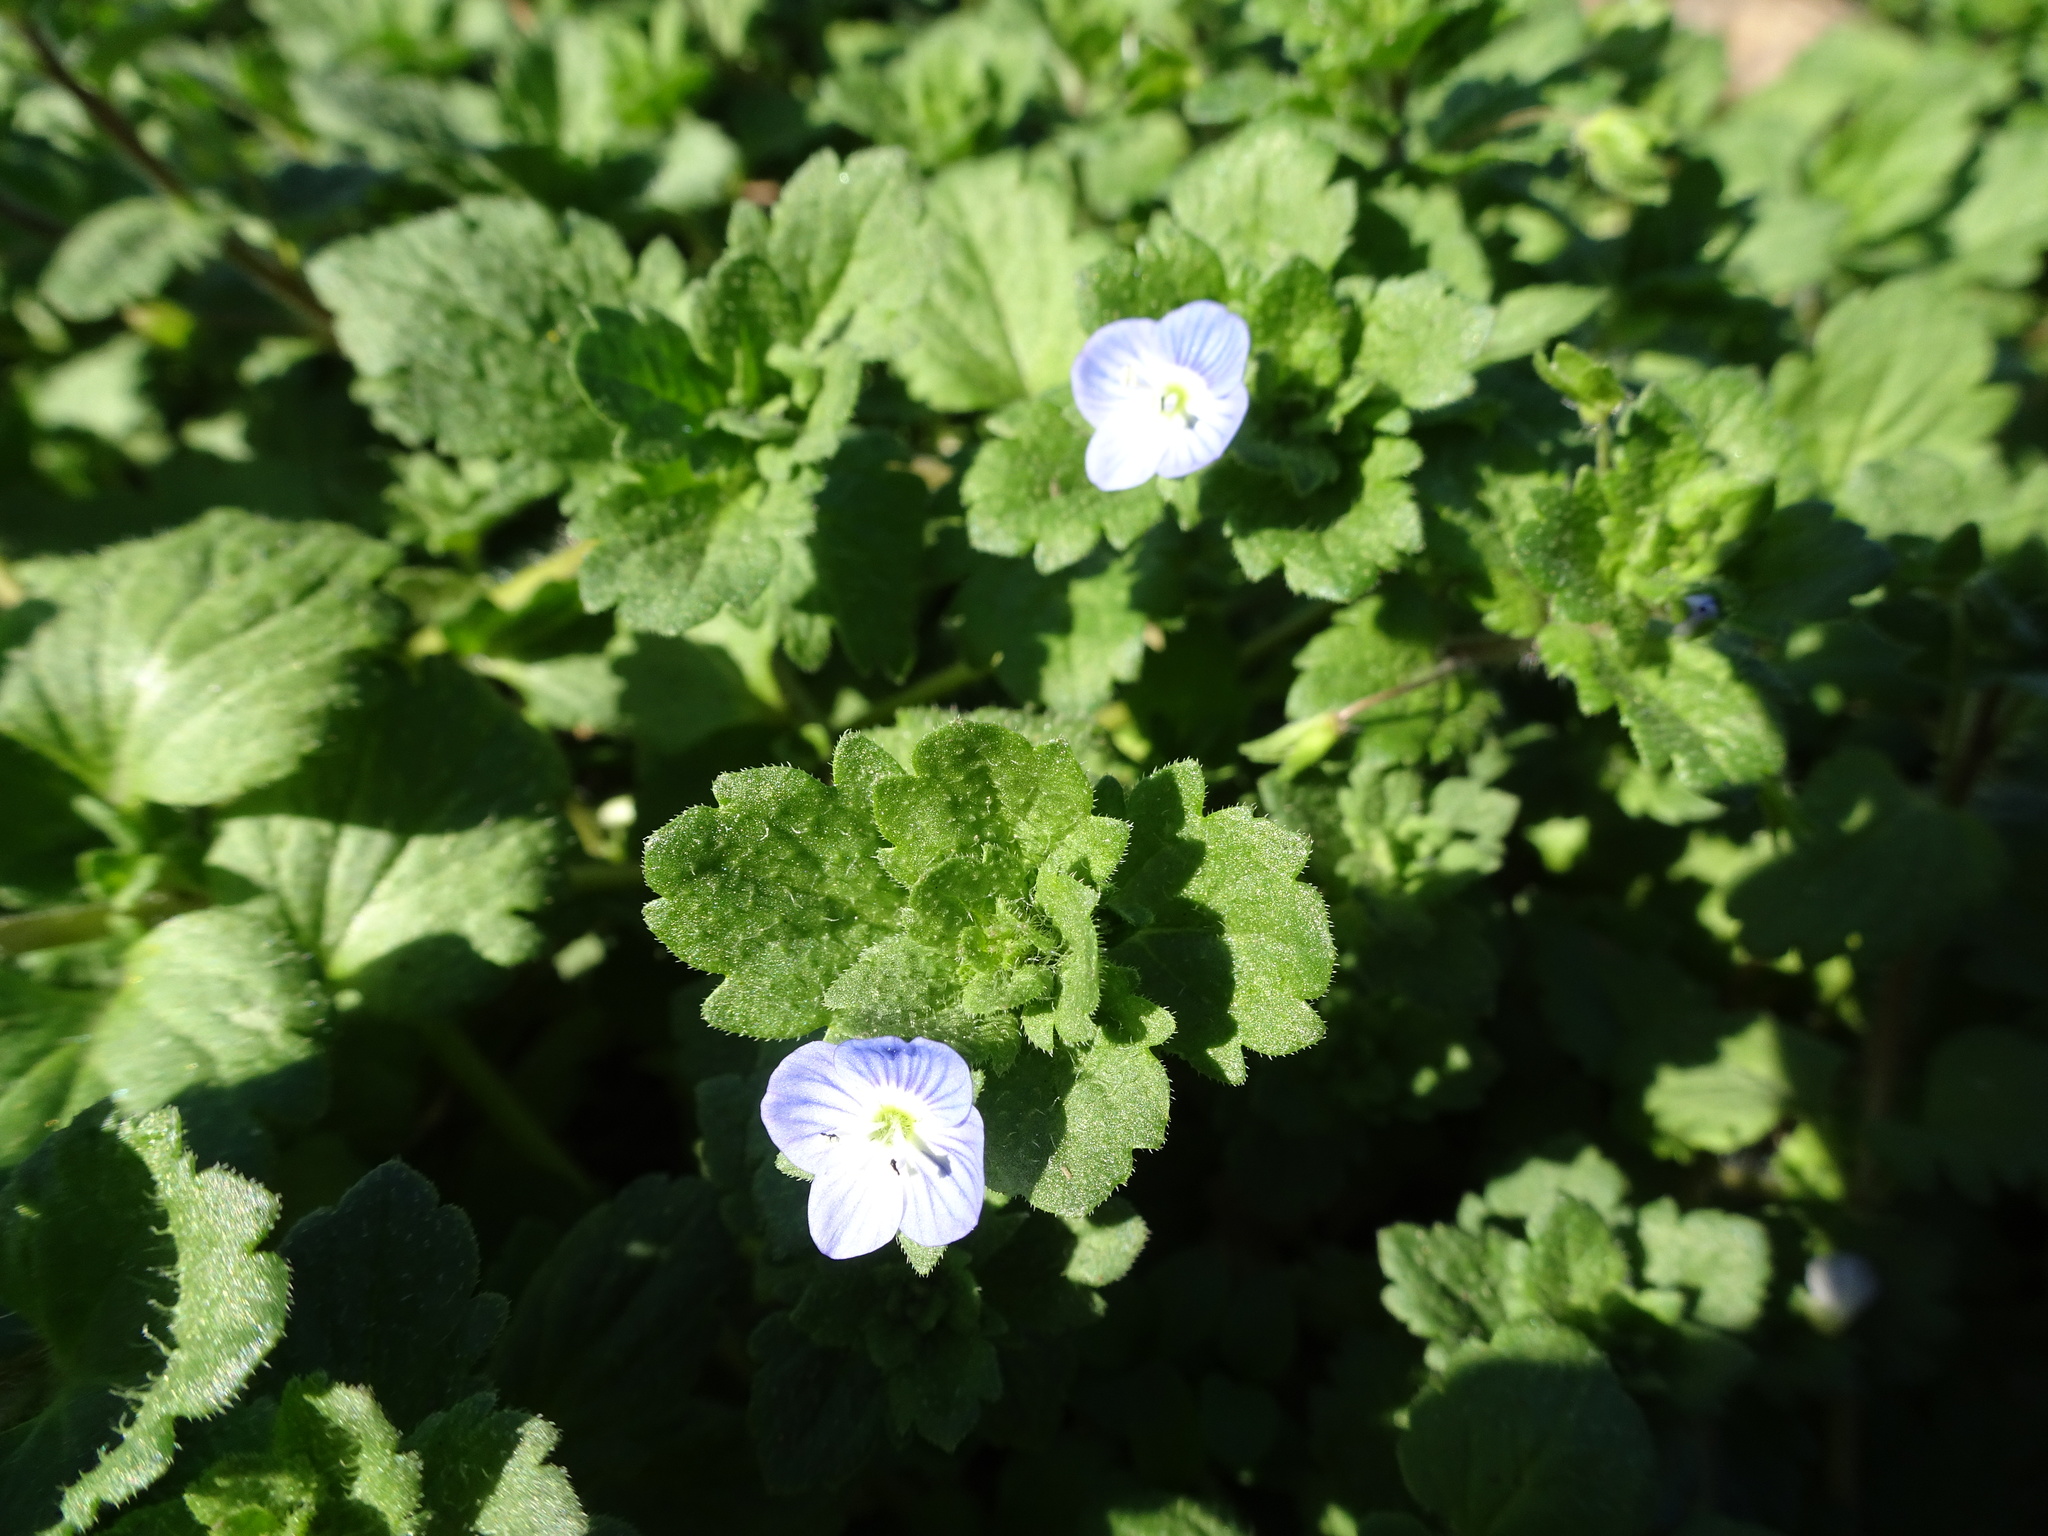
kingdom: Plantae
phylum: Tracheophyta
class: Magnoliopsida
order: Lamiales
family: Plantaginaceae
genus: Veronica
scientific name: Veronica persica
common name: Common field-speedwell
